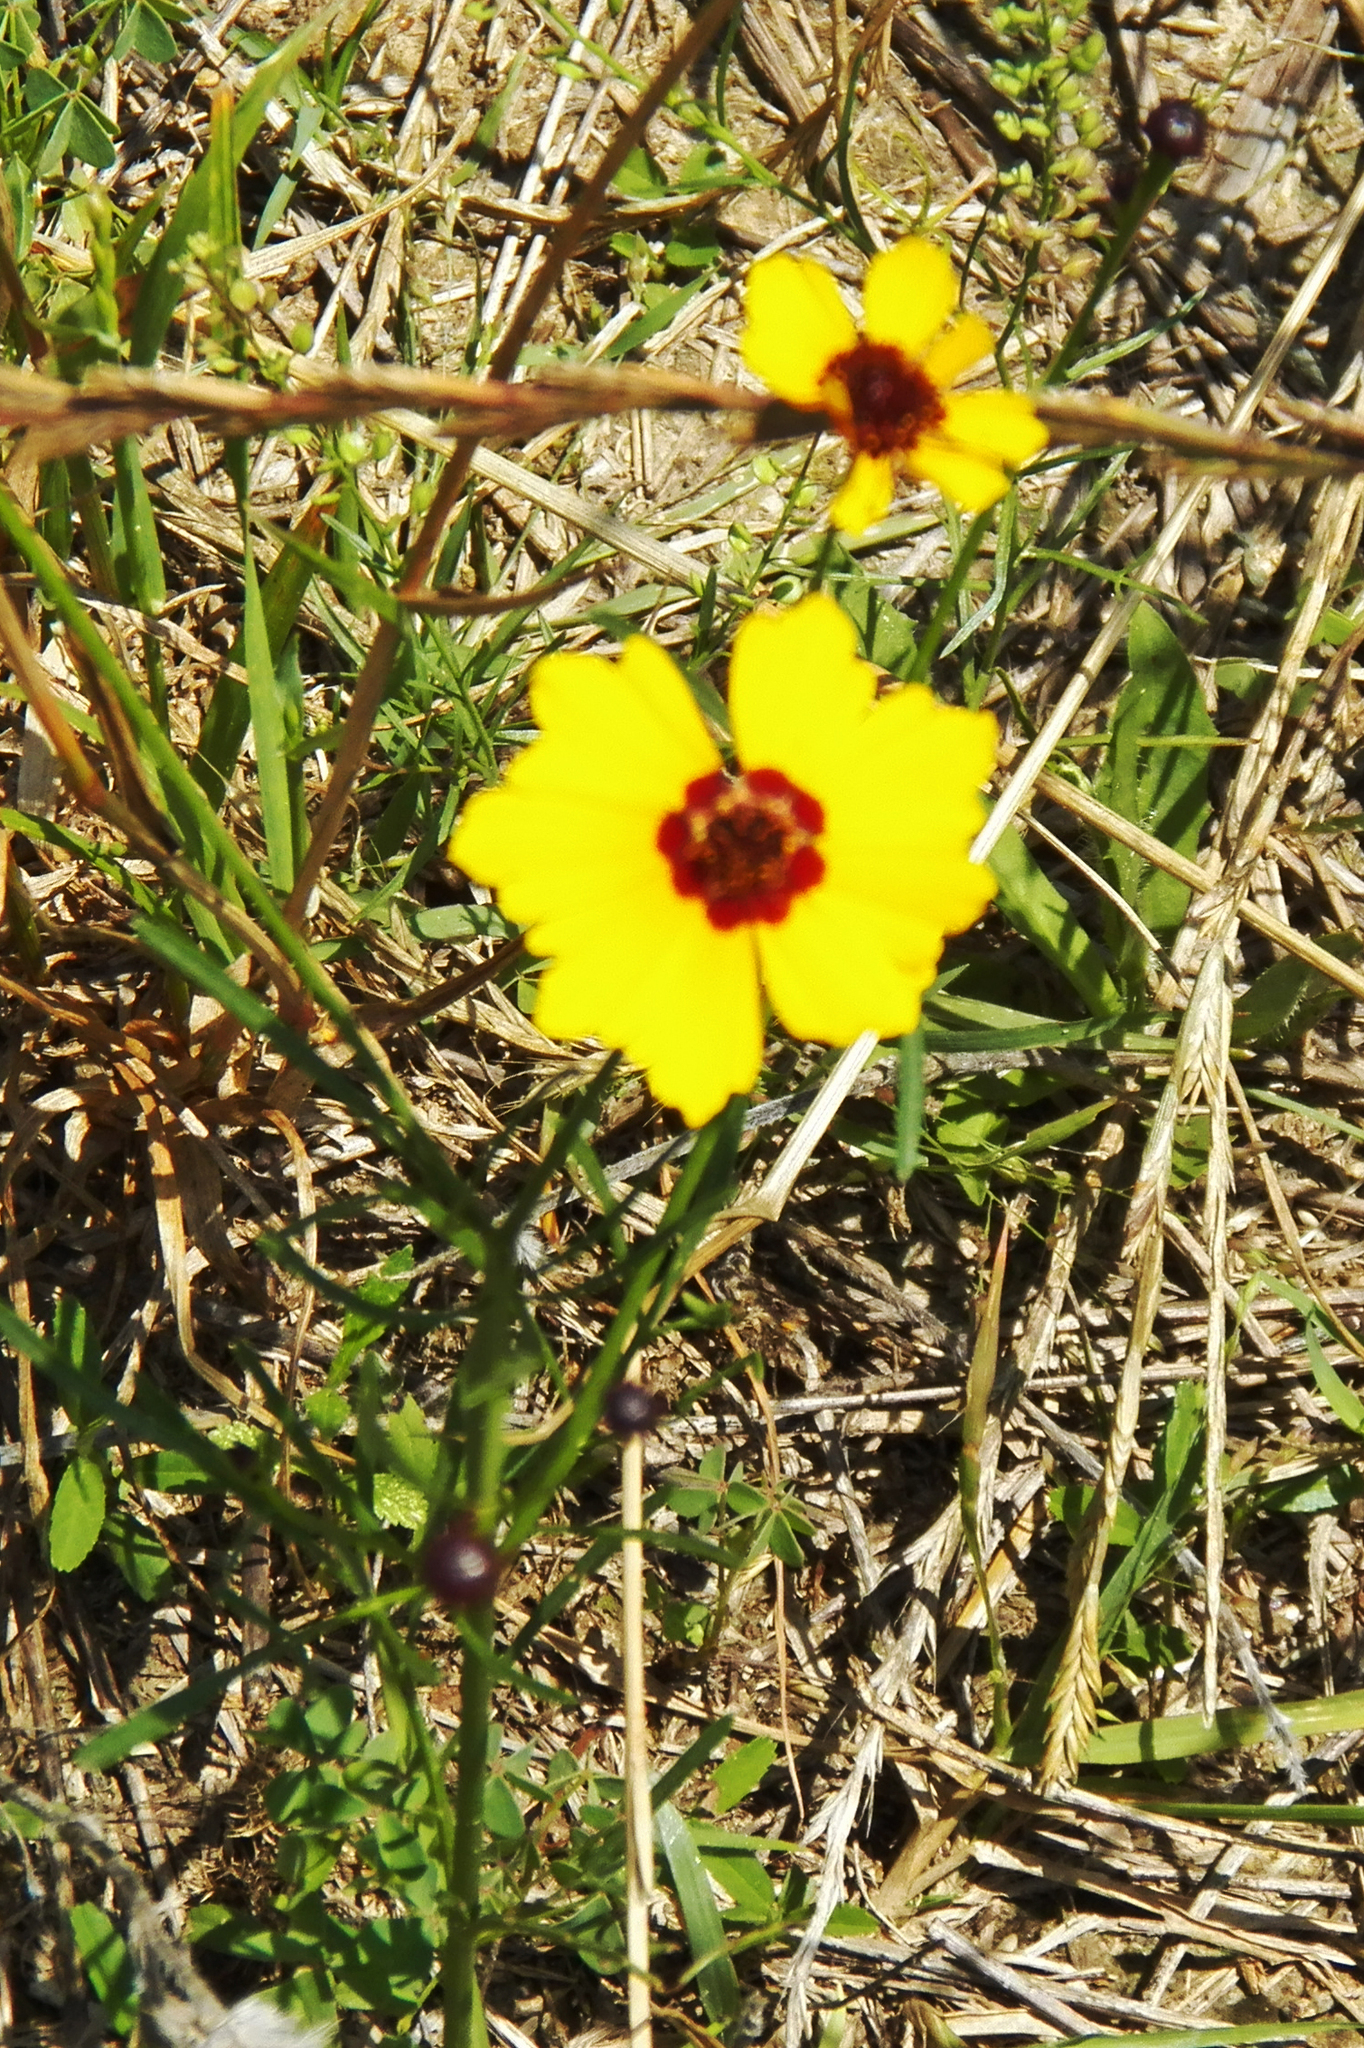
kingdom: Plantae
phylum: Tracheophyta
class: Magnoliopsida
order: Asterales
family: Asteraceae
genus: Coreopsis
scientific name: Coreopsis tinctoria
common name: Garden tickseed
